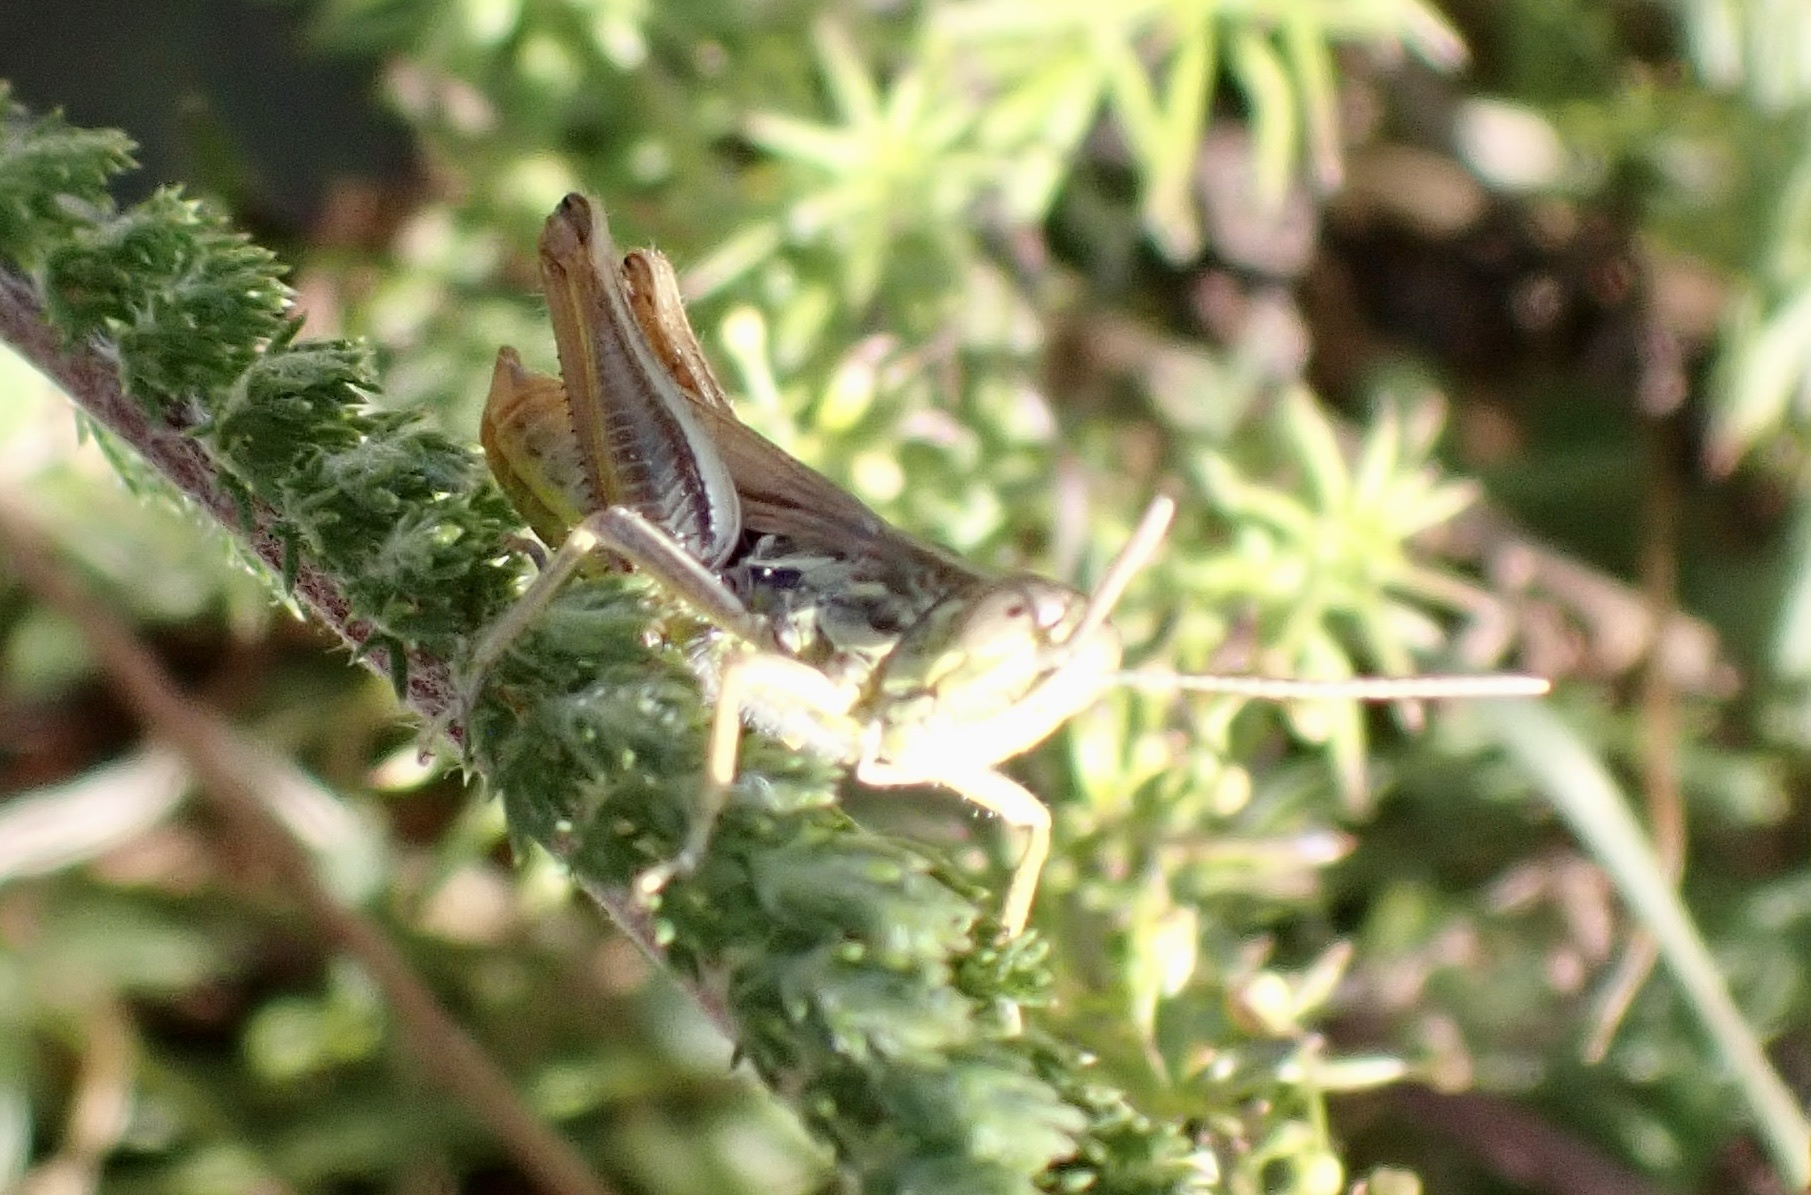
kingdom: Animalia
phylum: Arthropoda
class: Insecta
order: Orthoptera
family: Acrididae
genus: Euchorthippus
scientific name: Euchorthippus declivus
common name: Common straw grasshopper
